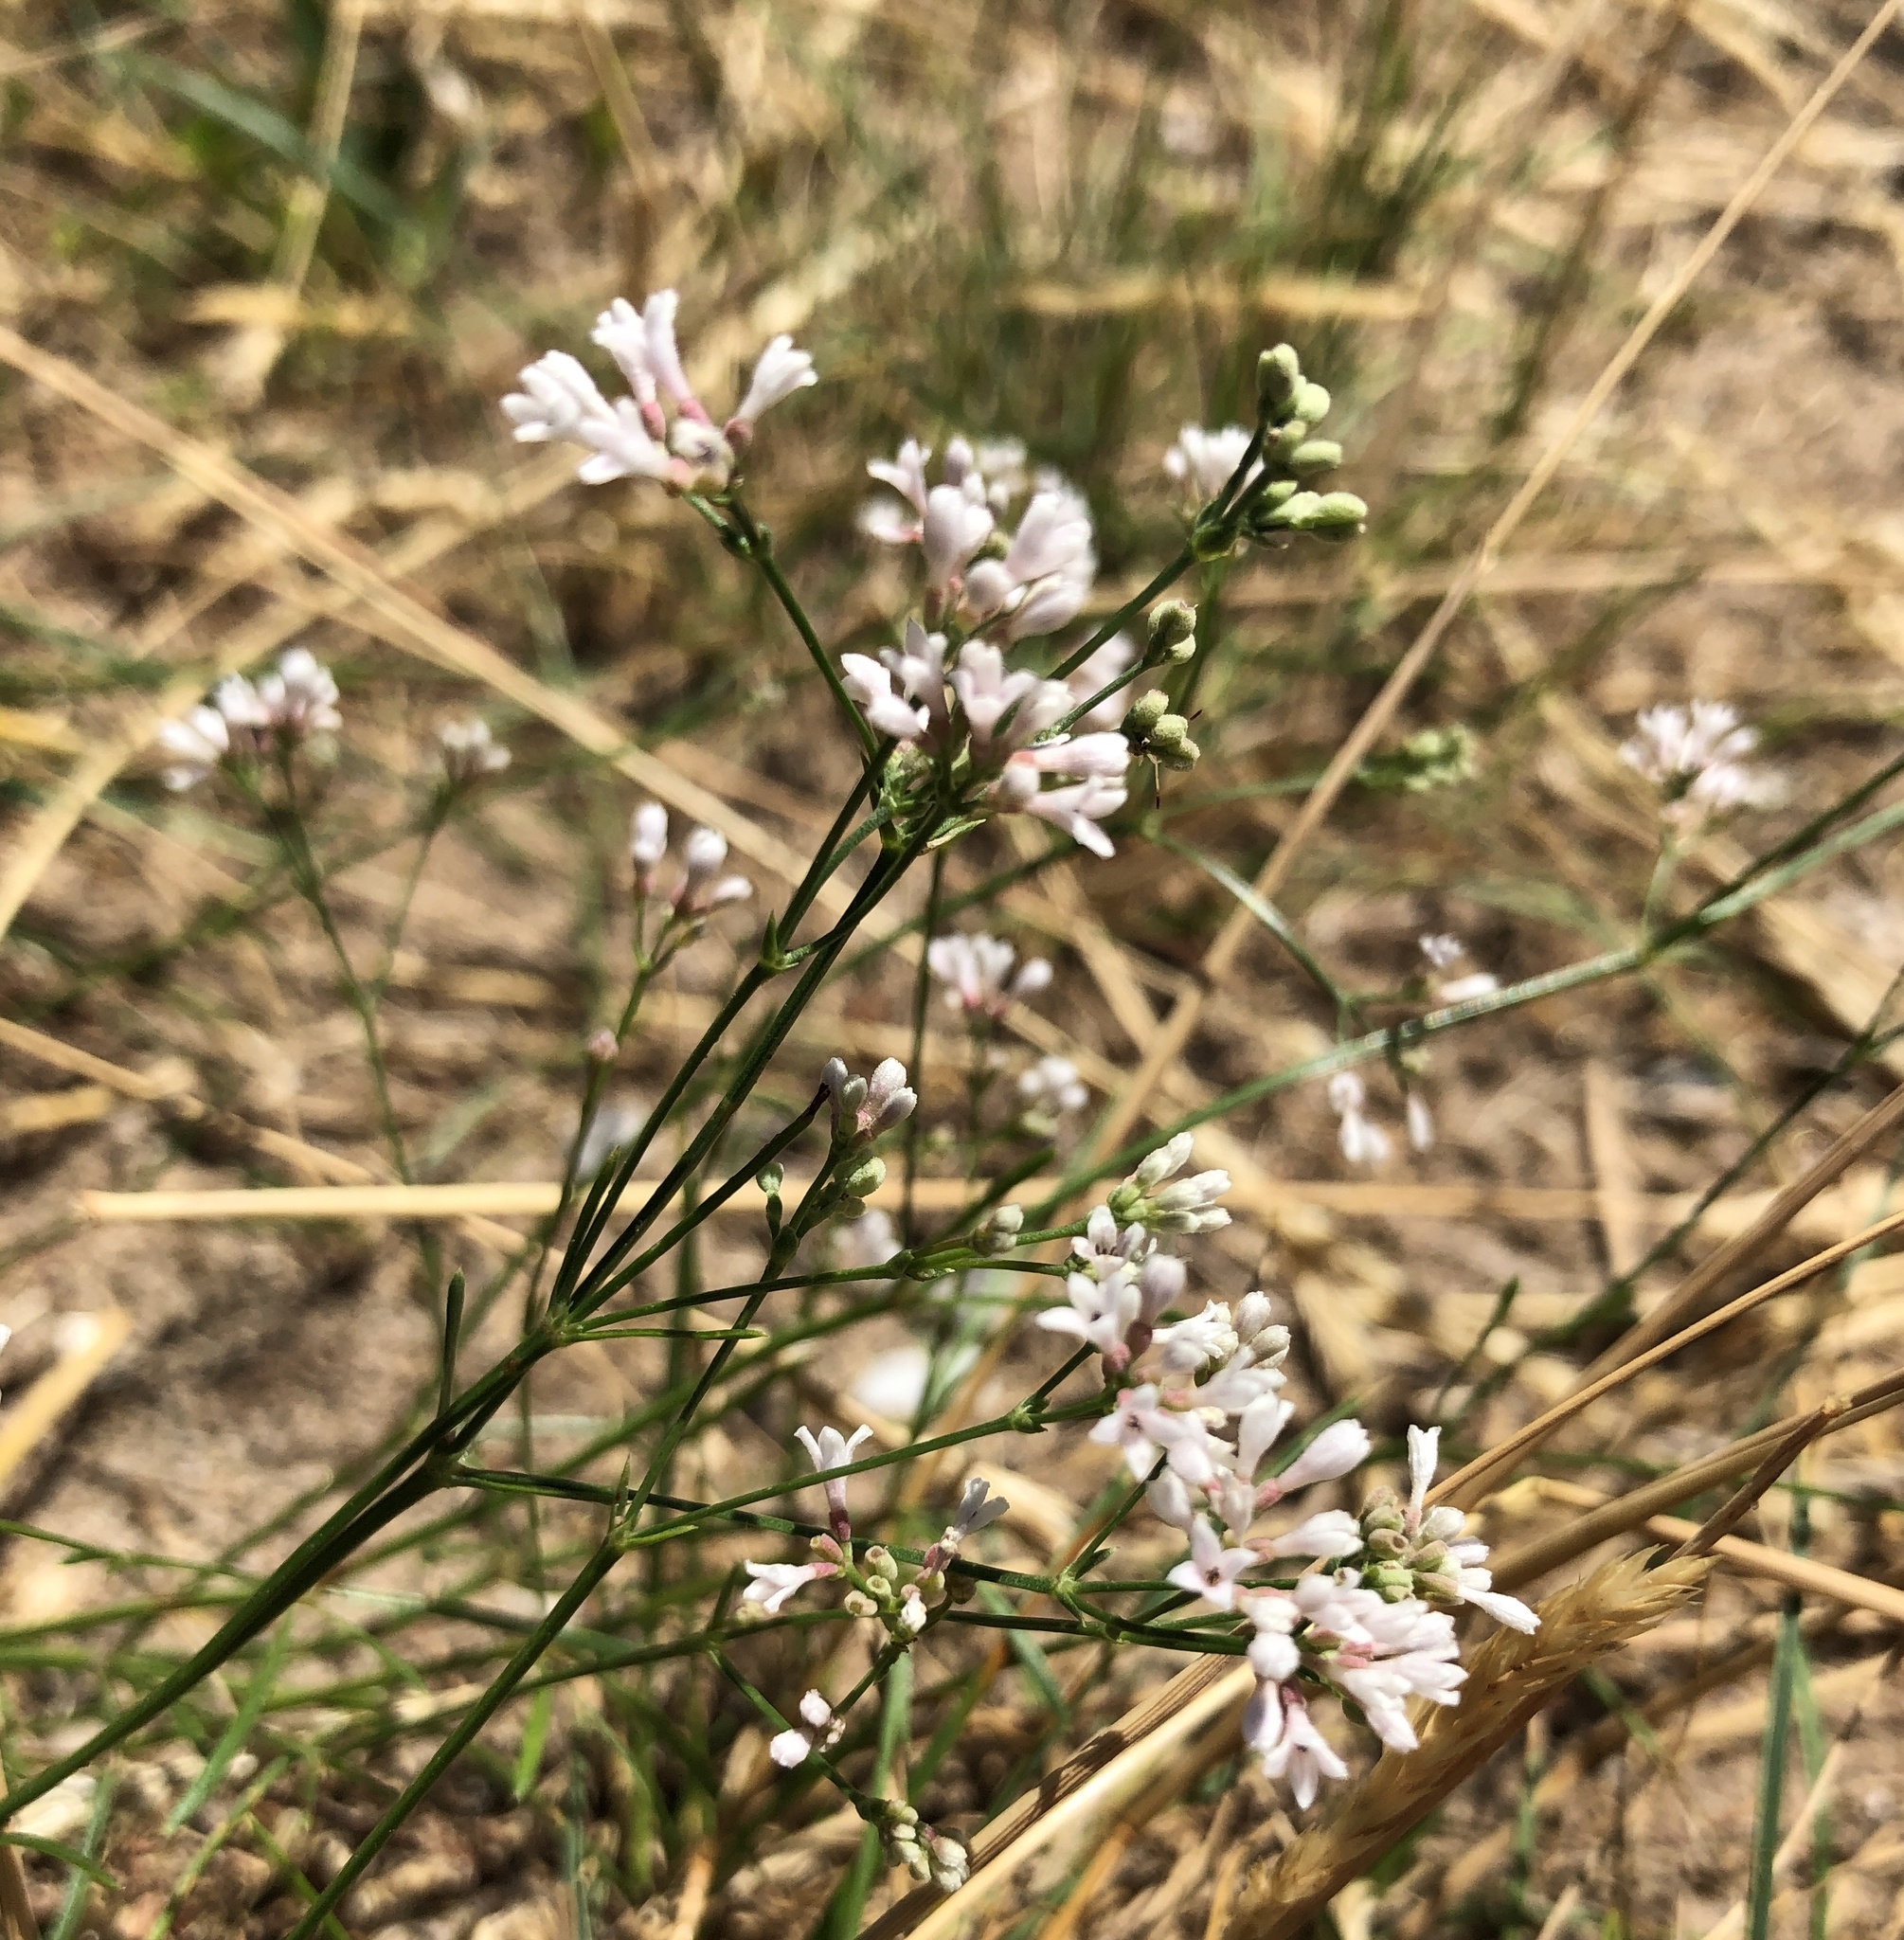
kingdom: Plantae
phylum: Tracheophyta
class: Magnoliopsida
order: Gentianales
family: Rubiaceae
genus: Cynanchica
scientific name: Cynanchica pyrenaica
